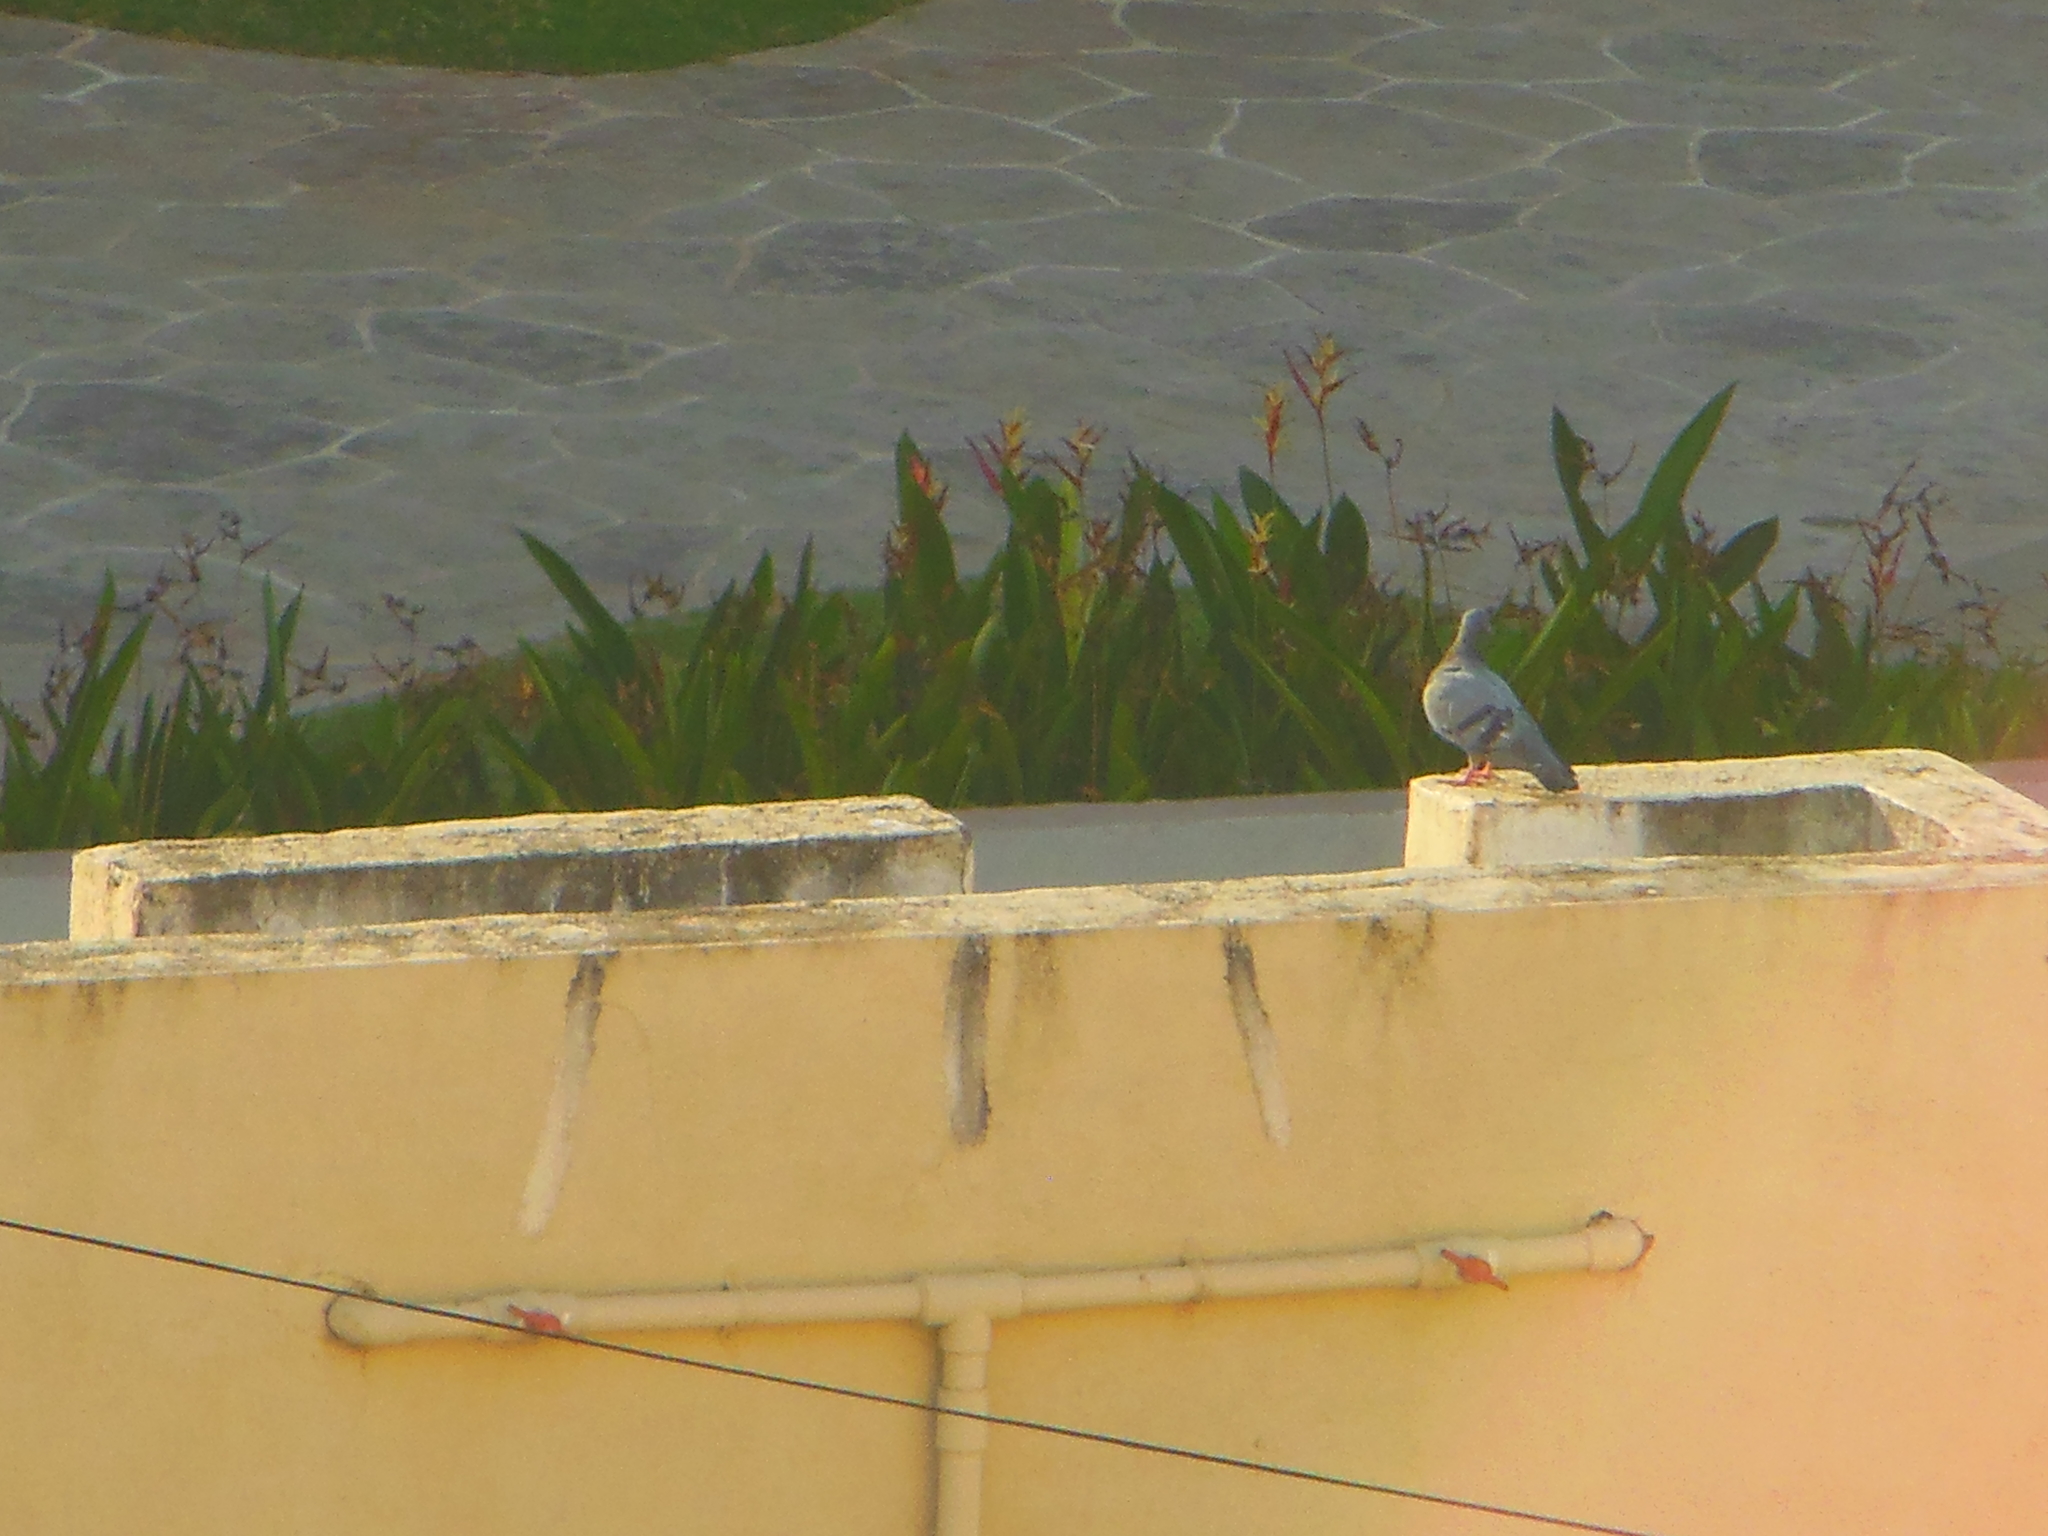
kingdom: Animalia
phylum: Chordata
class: Aves
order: Columbiformes
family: Columbidae
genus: Columba
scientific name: Columba livia
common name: Rock pigeon
